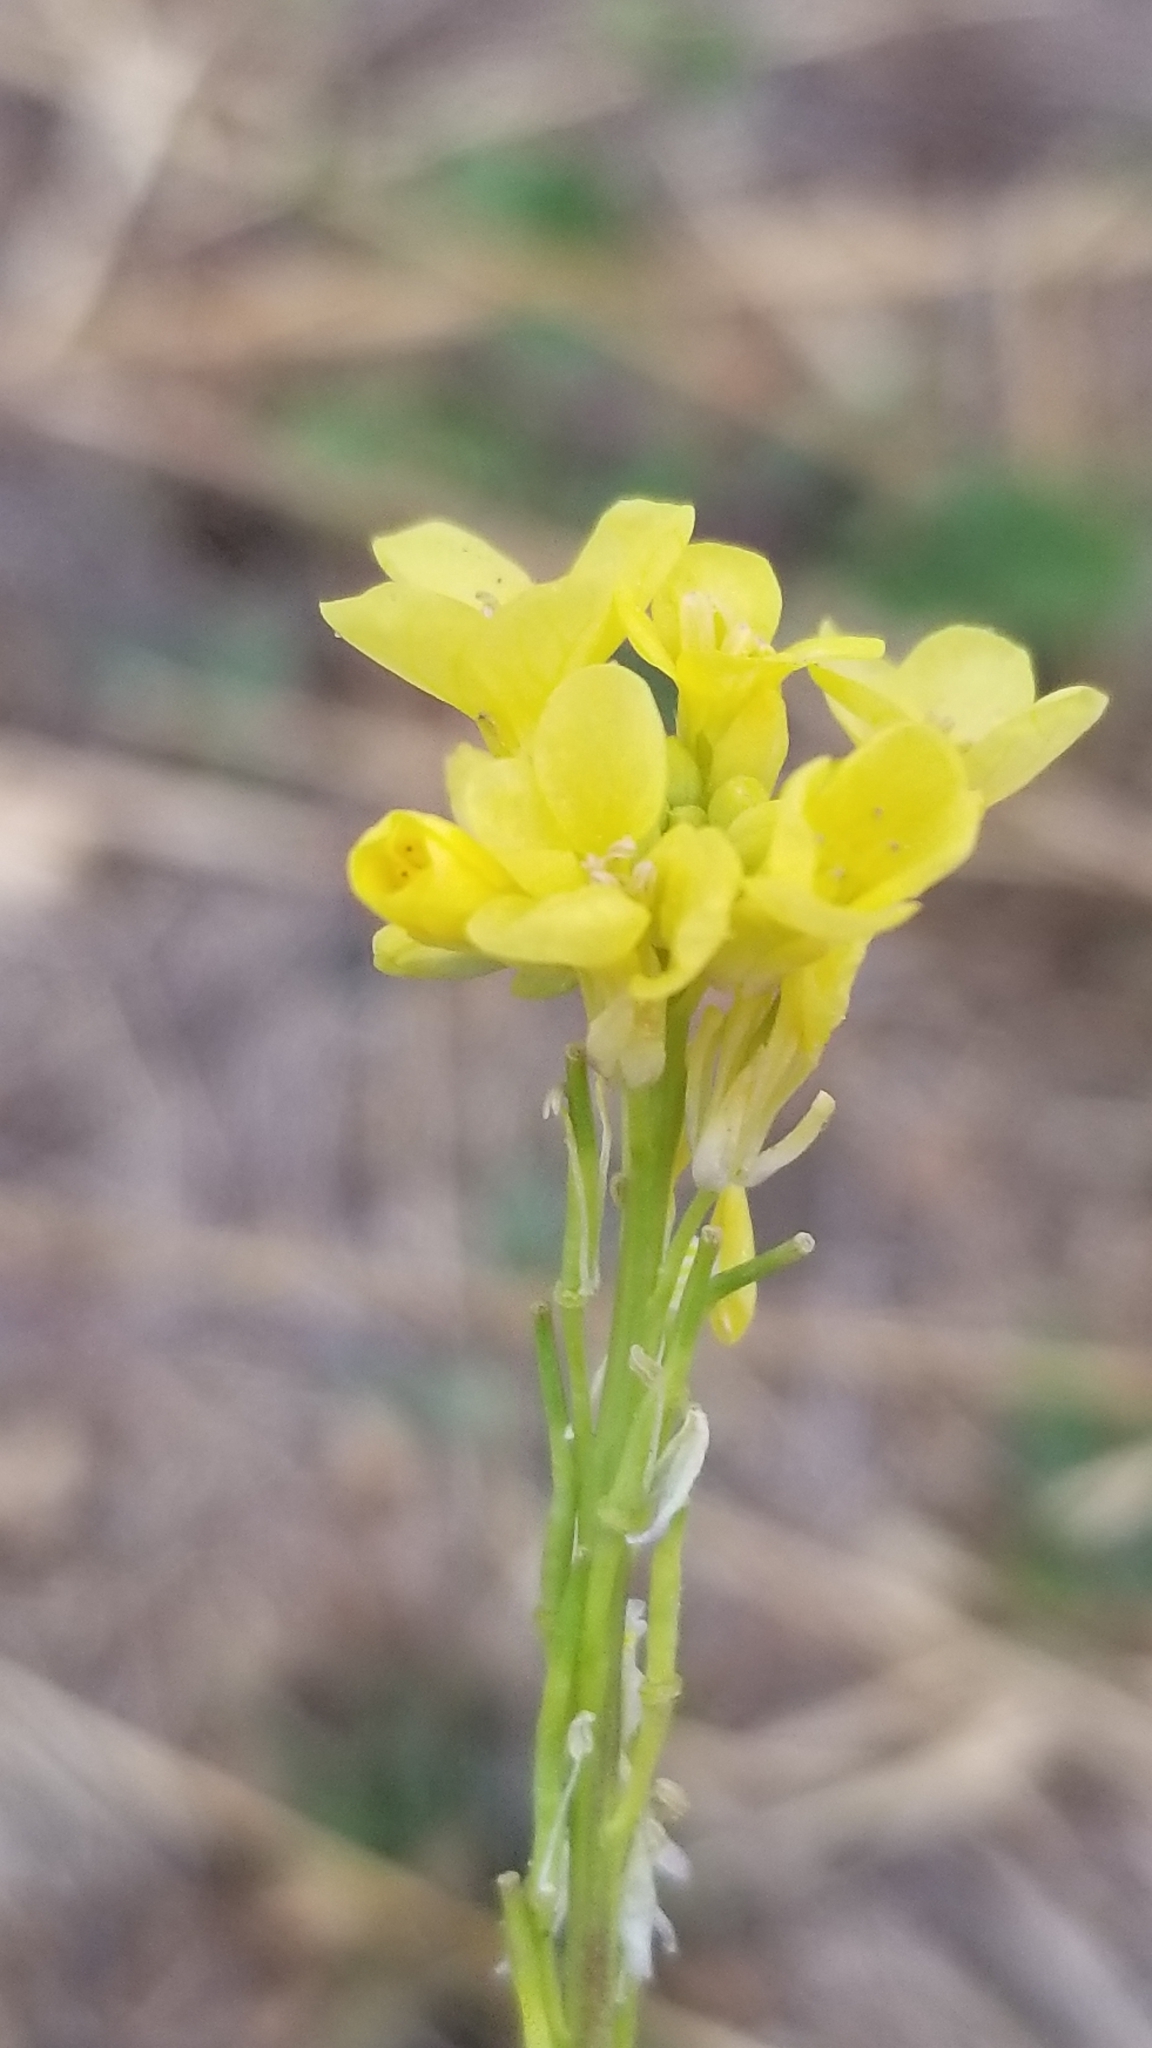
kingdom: Plantae
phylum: Tracheophyta
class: Magnoliopsida
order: Brassicales
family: Brassicaceae
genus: Hirschfeldia
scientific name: Hirschfeldia incana
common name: Hoary mustard
